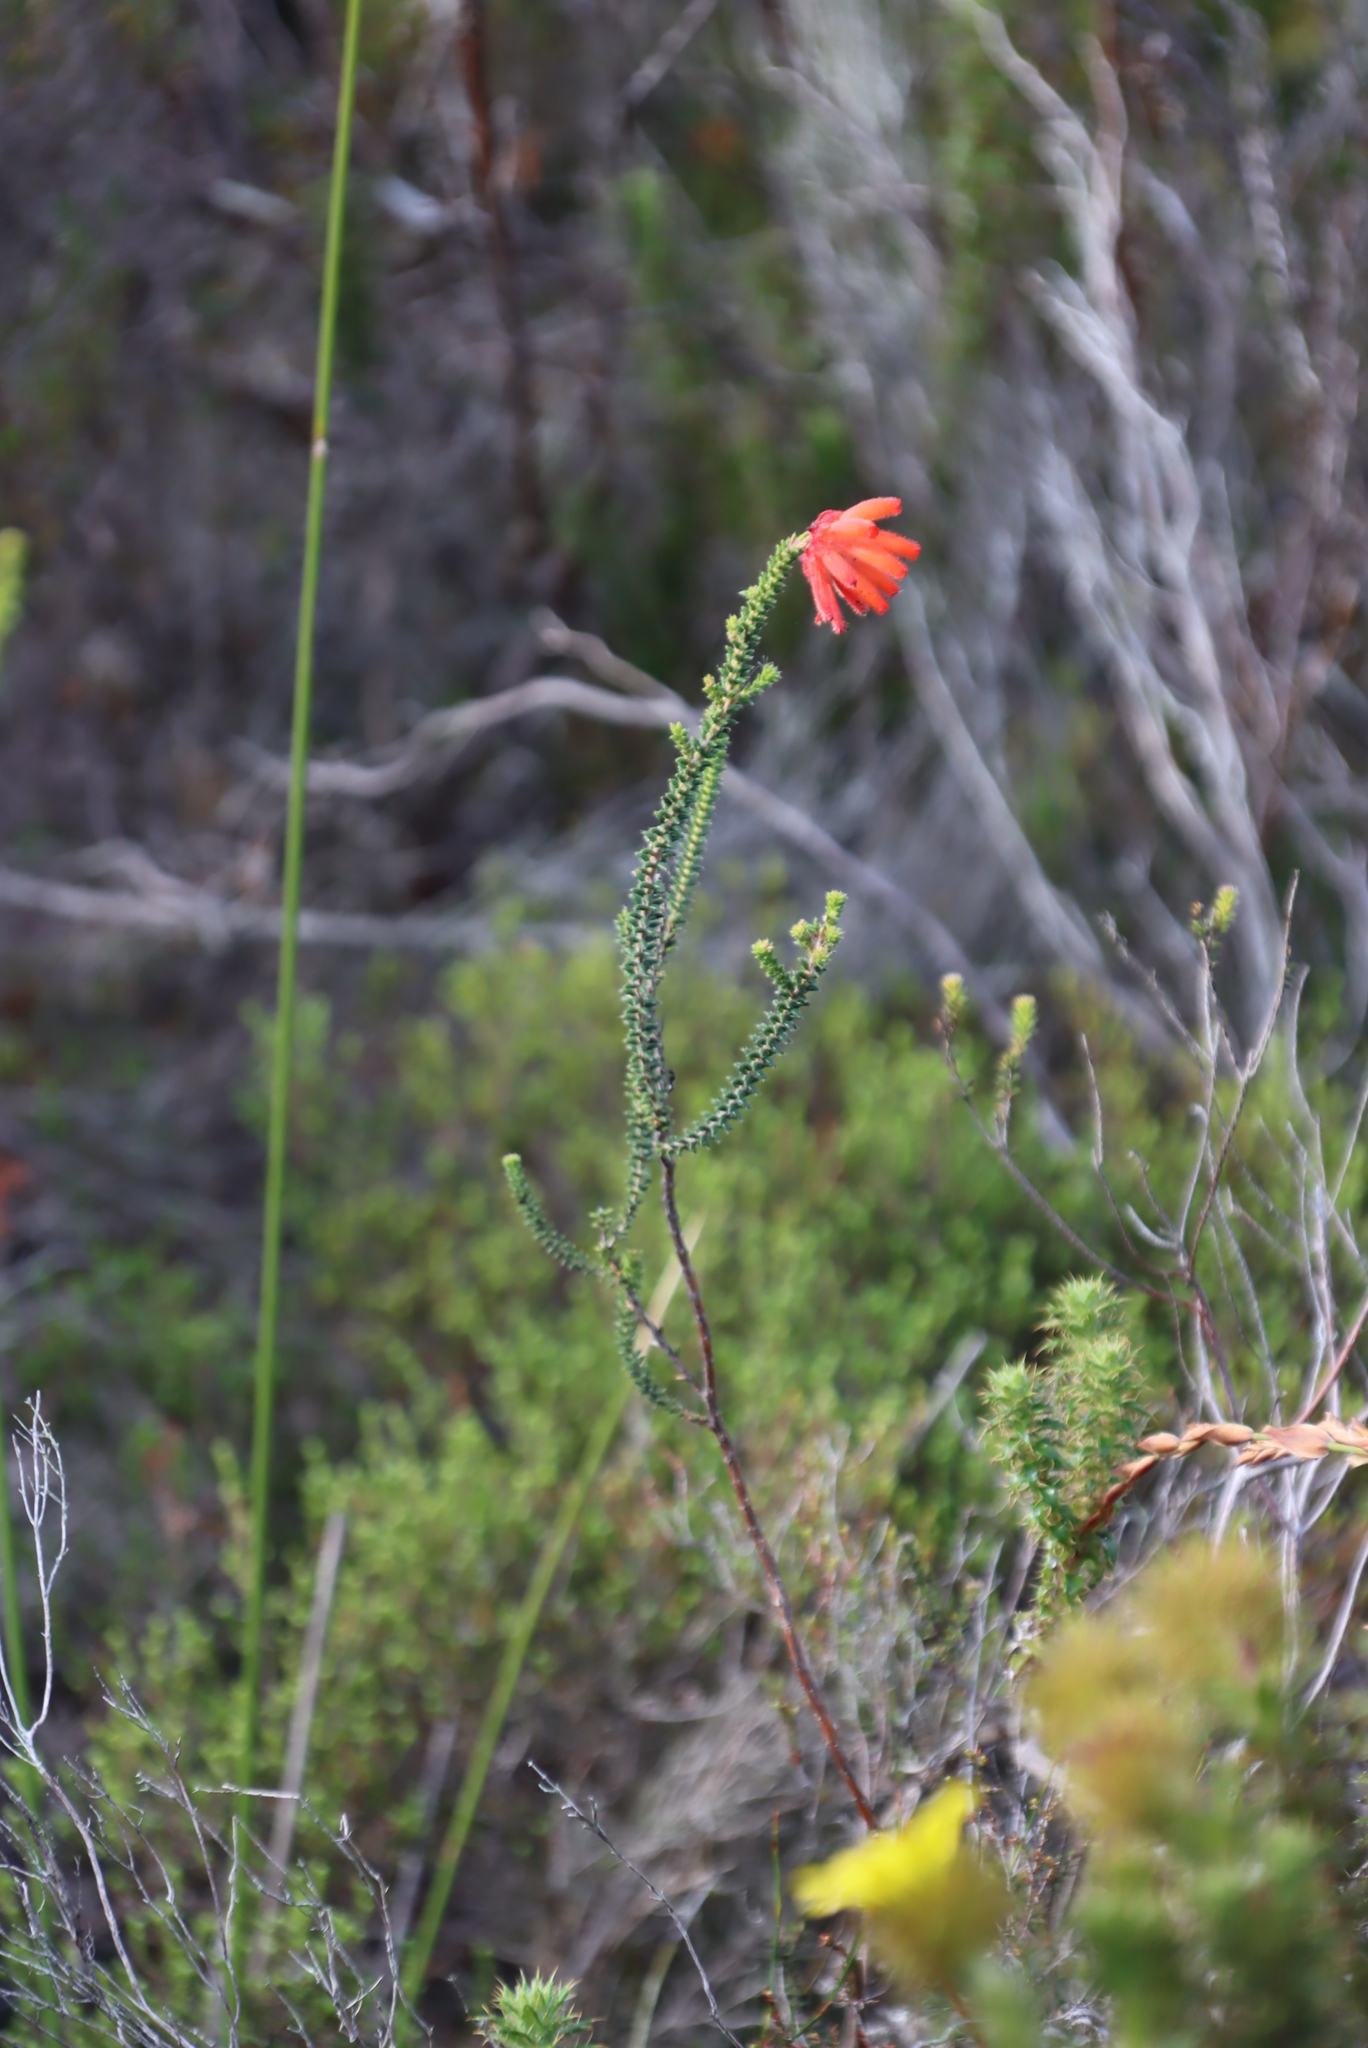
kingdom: Plantae
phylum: Tracheophyta
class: Magnoliopsida
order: Ericales
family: Ericaceae
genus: Erica
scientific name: Erica cerinthoides
